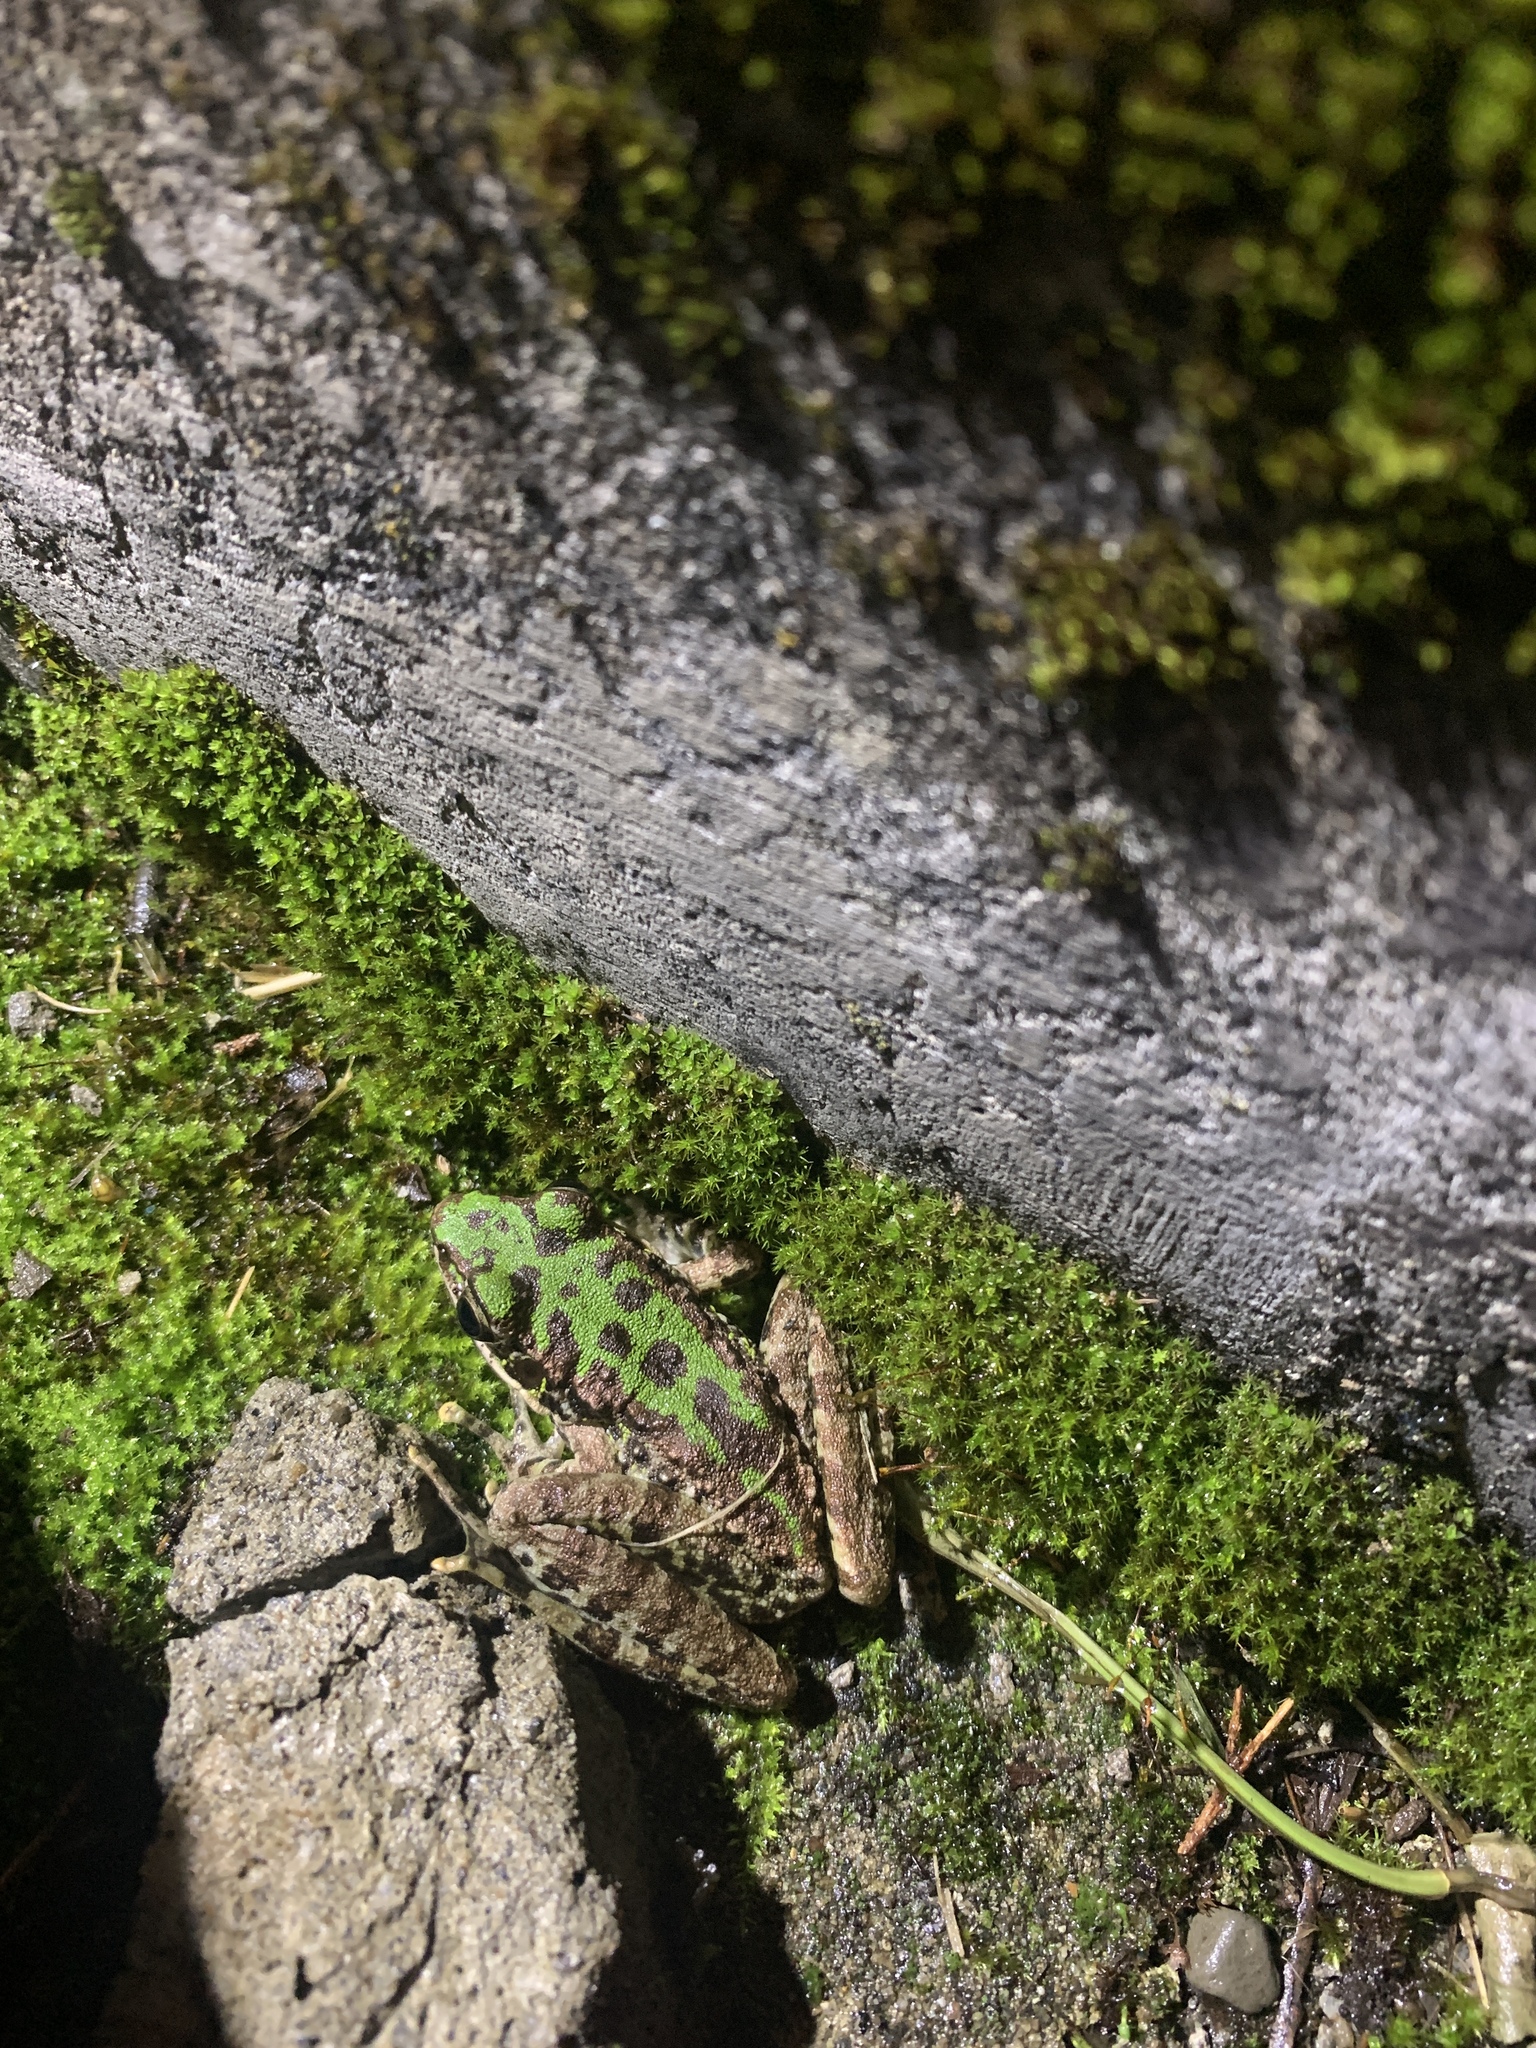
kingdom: Animalia
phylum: Chordata
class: Amphibia
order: Anura
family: Ranidae
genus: Odorrana
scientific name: Odorrana swinhoana
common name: Bangkimtsing frog
